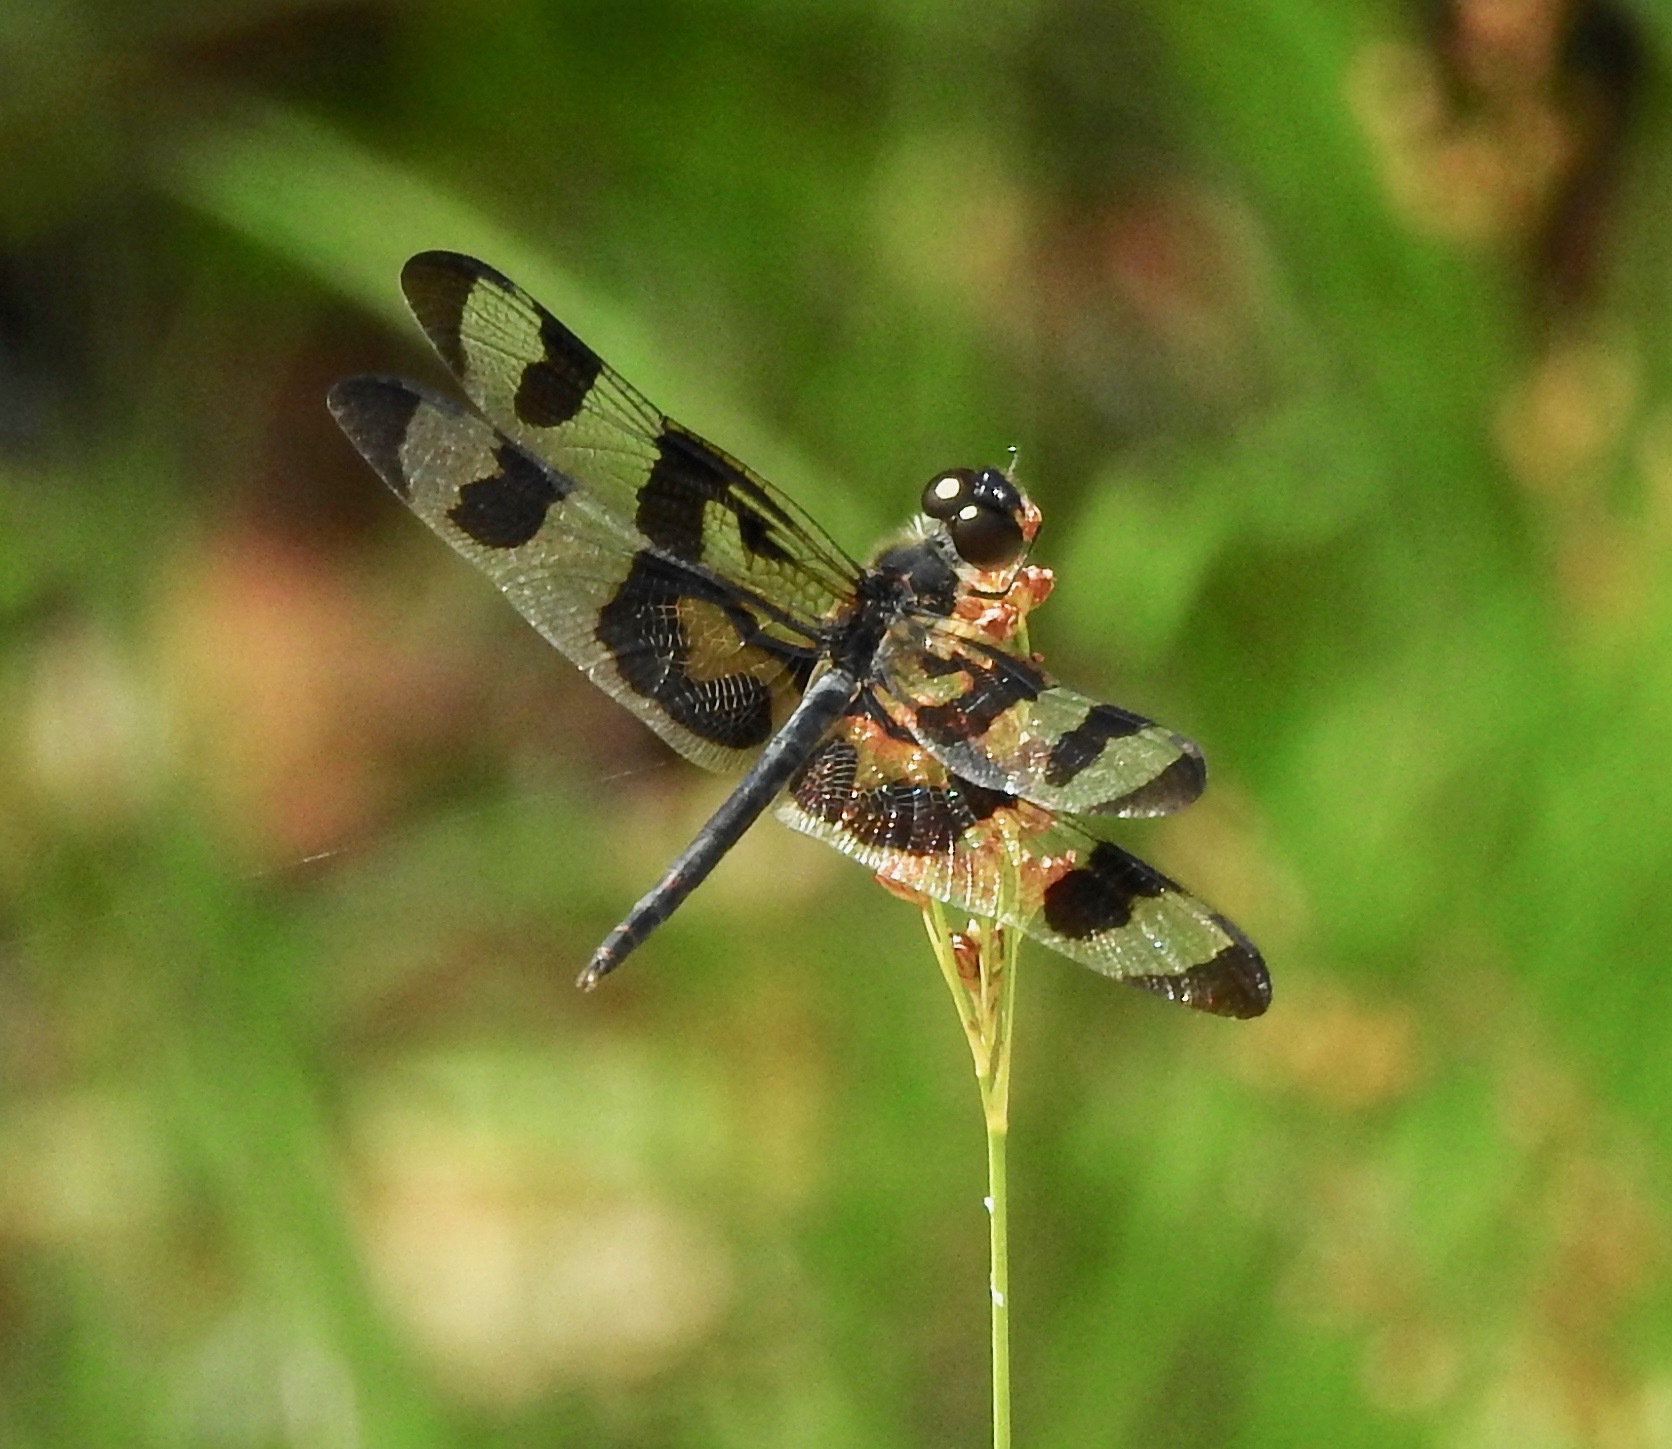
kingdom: Animalia
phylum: Arthropoda
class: Insecta
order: Odonata
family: Libellulidae
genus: Celithemis
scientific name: Celithemis fasciata
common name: Banded pennant
